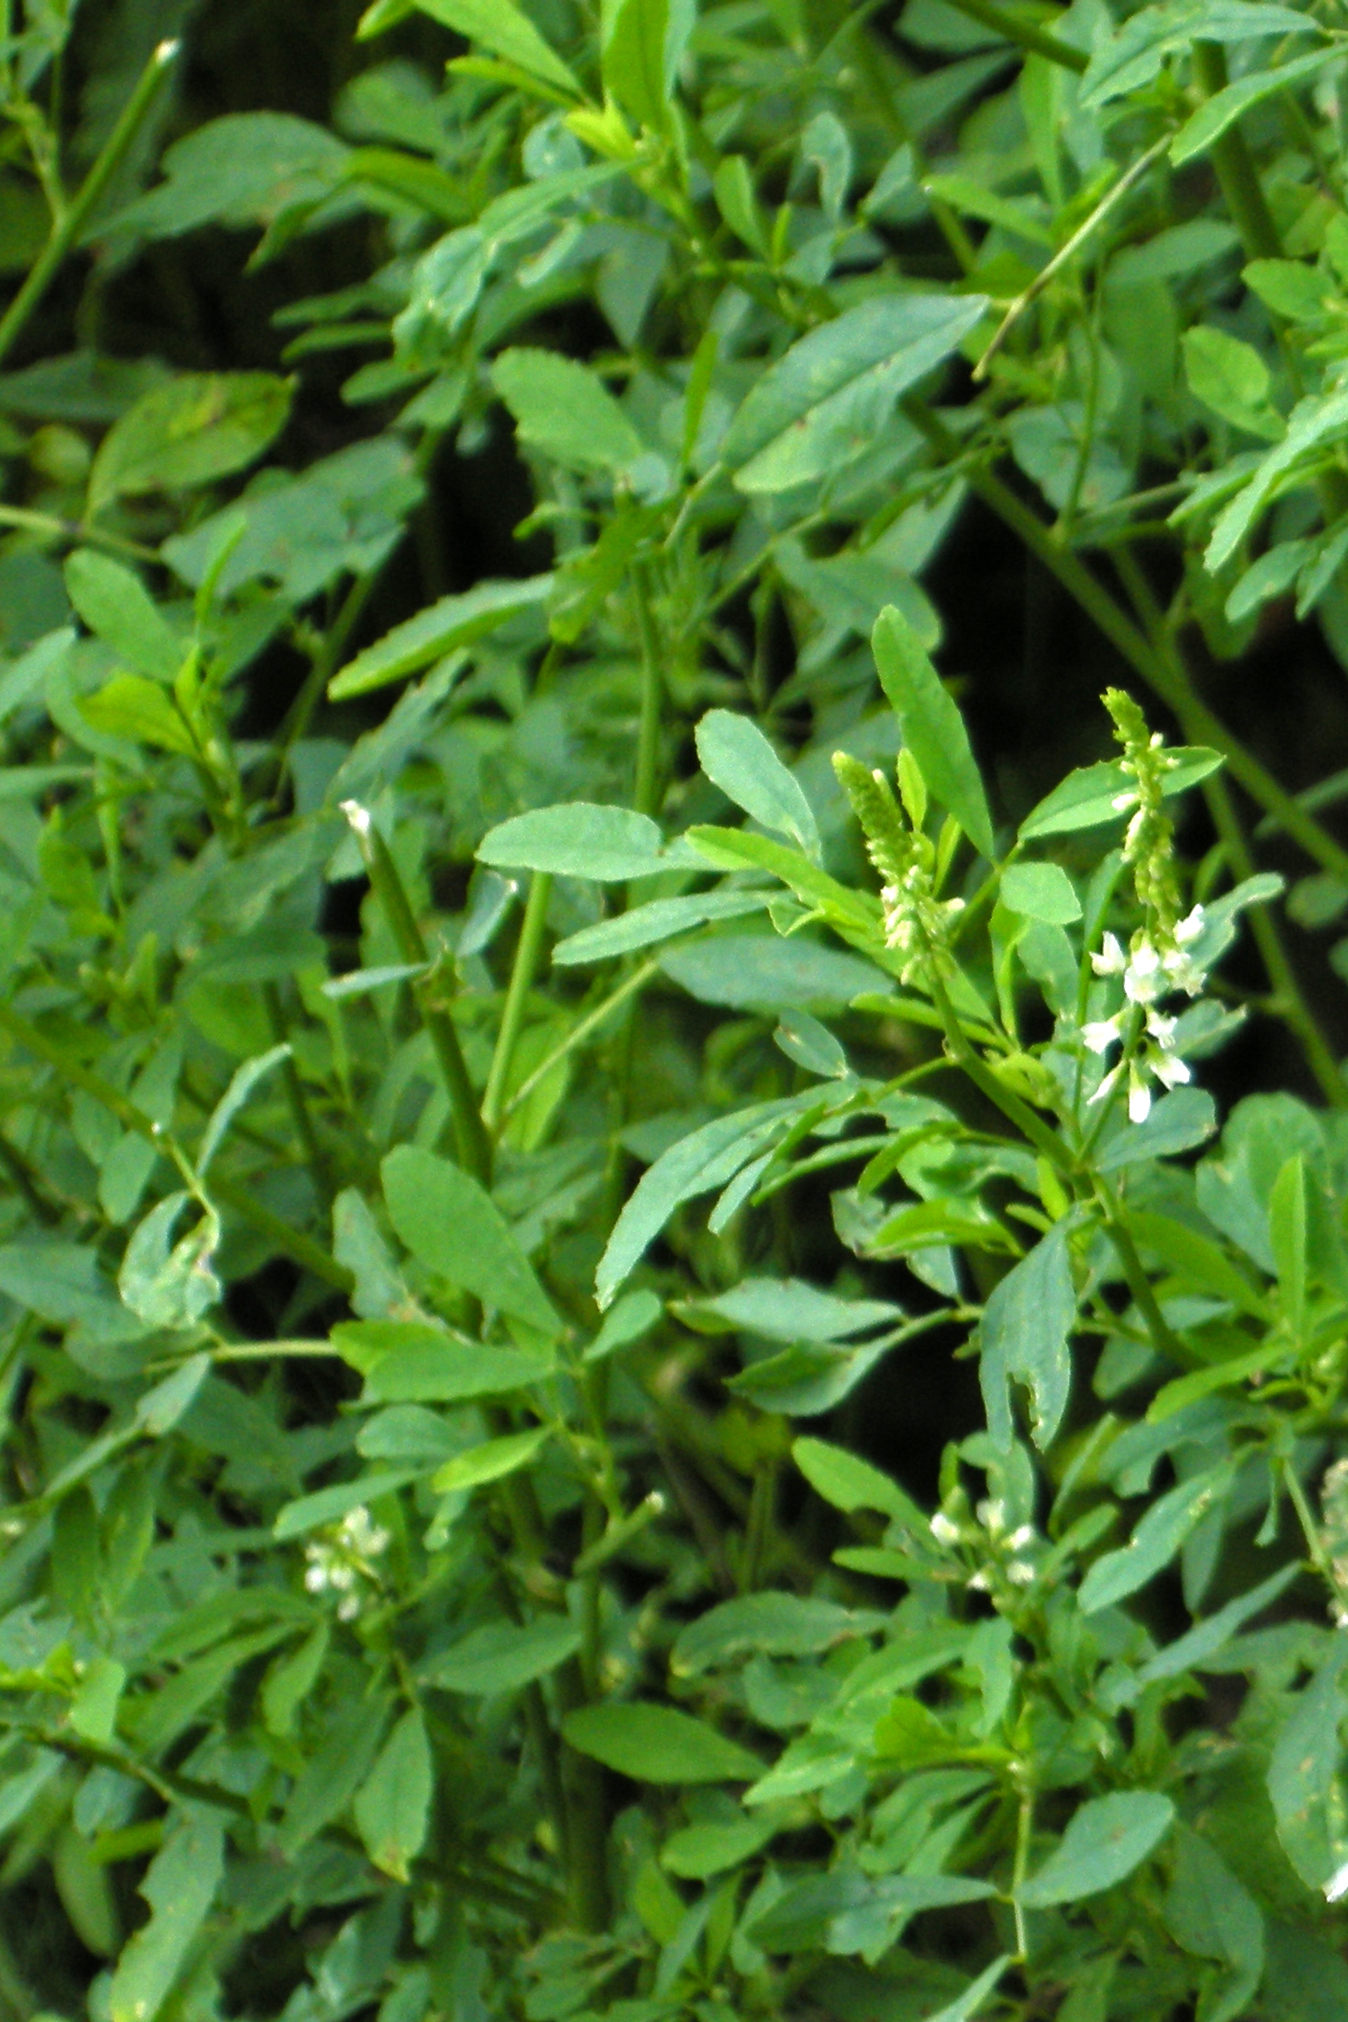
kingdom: Plantae
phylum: Tracheophyta
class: Magnoliopsida
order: Fabales
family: Fabaceae
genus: Melilotus
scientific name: Melilotus albus
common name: White melilot
